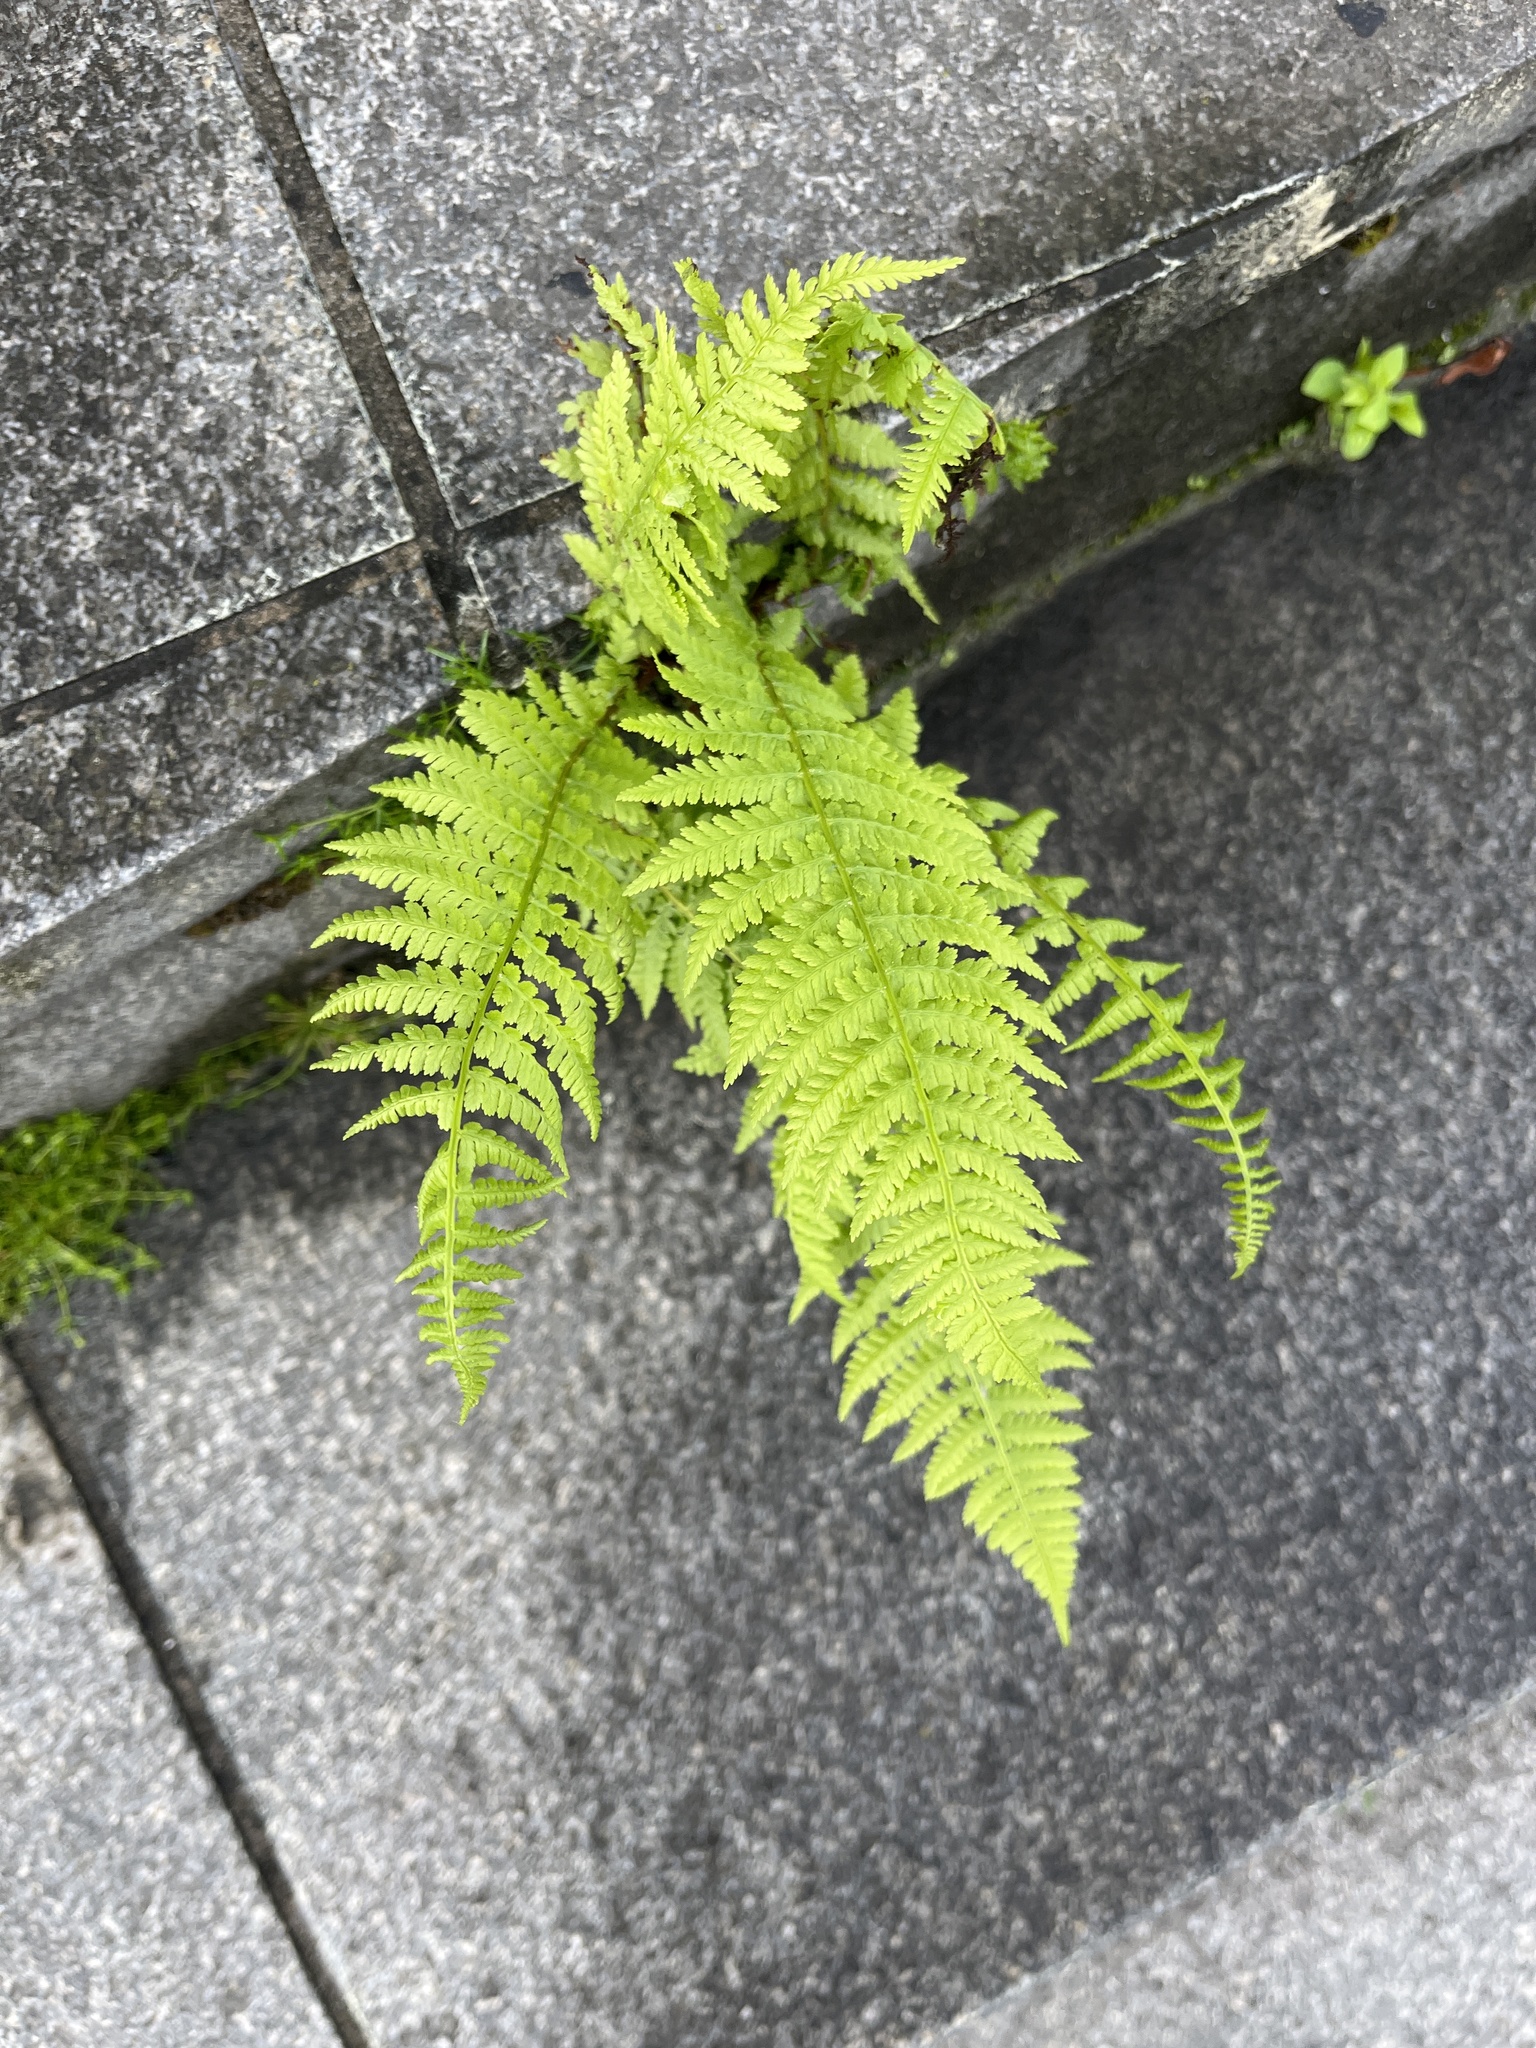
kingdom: Plantae
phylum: Tracheophyta
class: Polypodiopsida
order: Polypodiales
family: Athyriaceae
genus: Athyrium
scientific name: Athyrium filix-femina
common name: Lady fern
